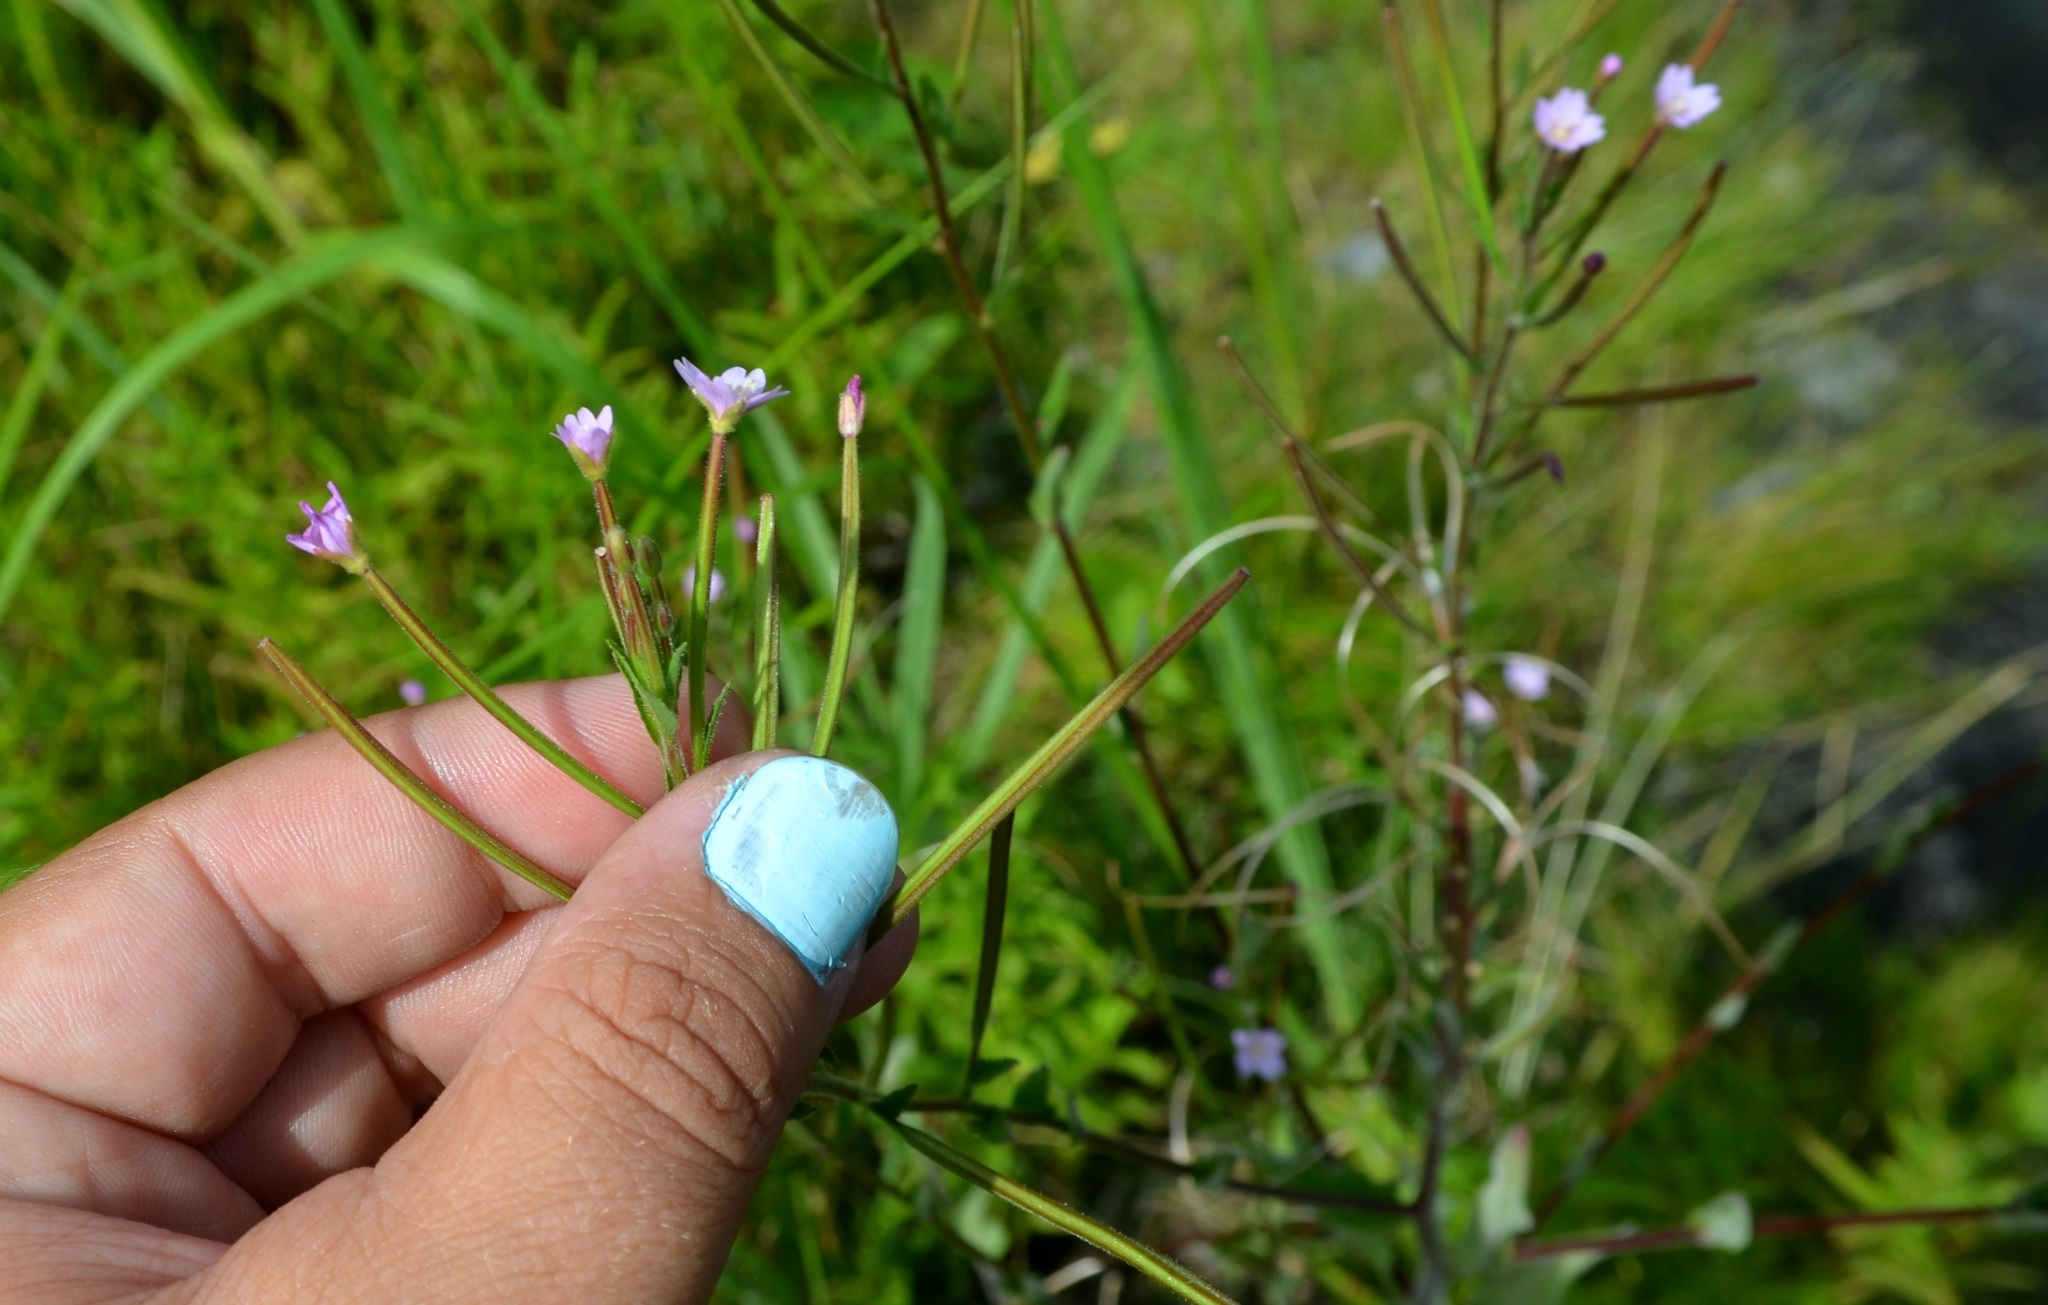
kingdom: Plantae
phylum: Tracheophyta
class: Magnoliopsida
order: Myrtales
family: Onagraceae
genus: Epilobium
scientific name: Epilobium ciliatum
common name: American willowherb
